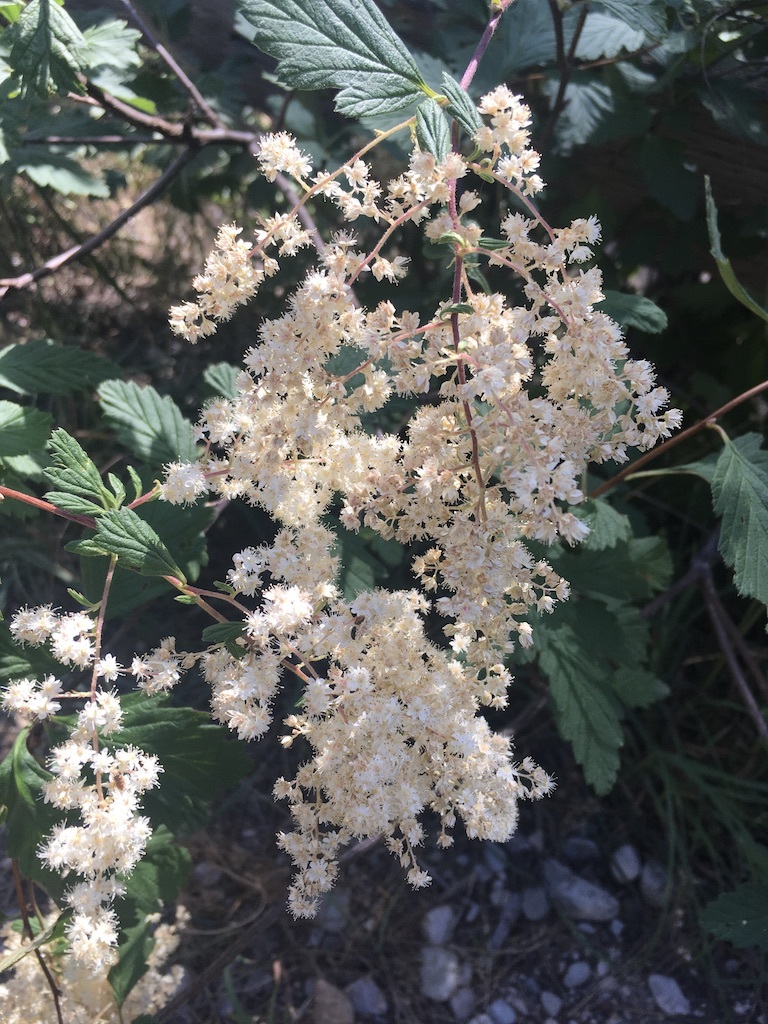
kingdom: Plantae
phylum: Tracheophyta
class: Magnoliopsida
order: Rosales
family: Rosaceae
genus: Holodiscus
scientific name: Holodiscus discolor
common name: Oceanspray
